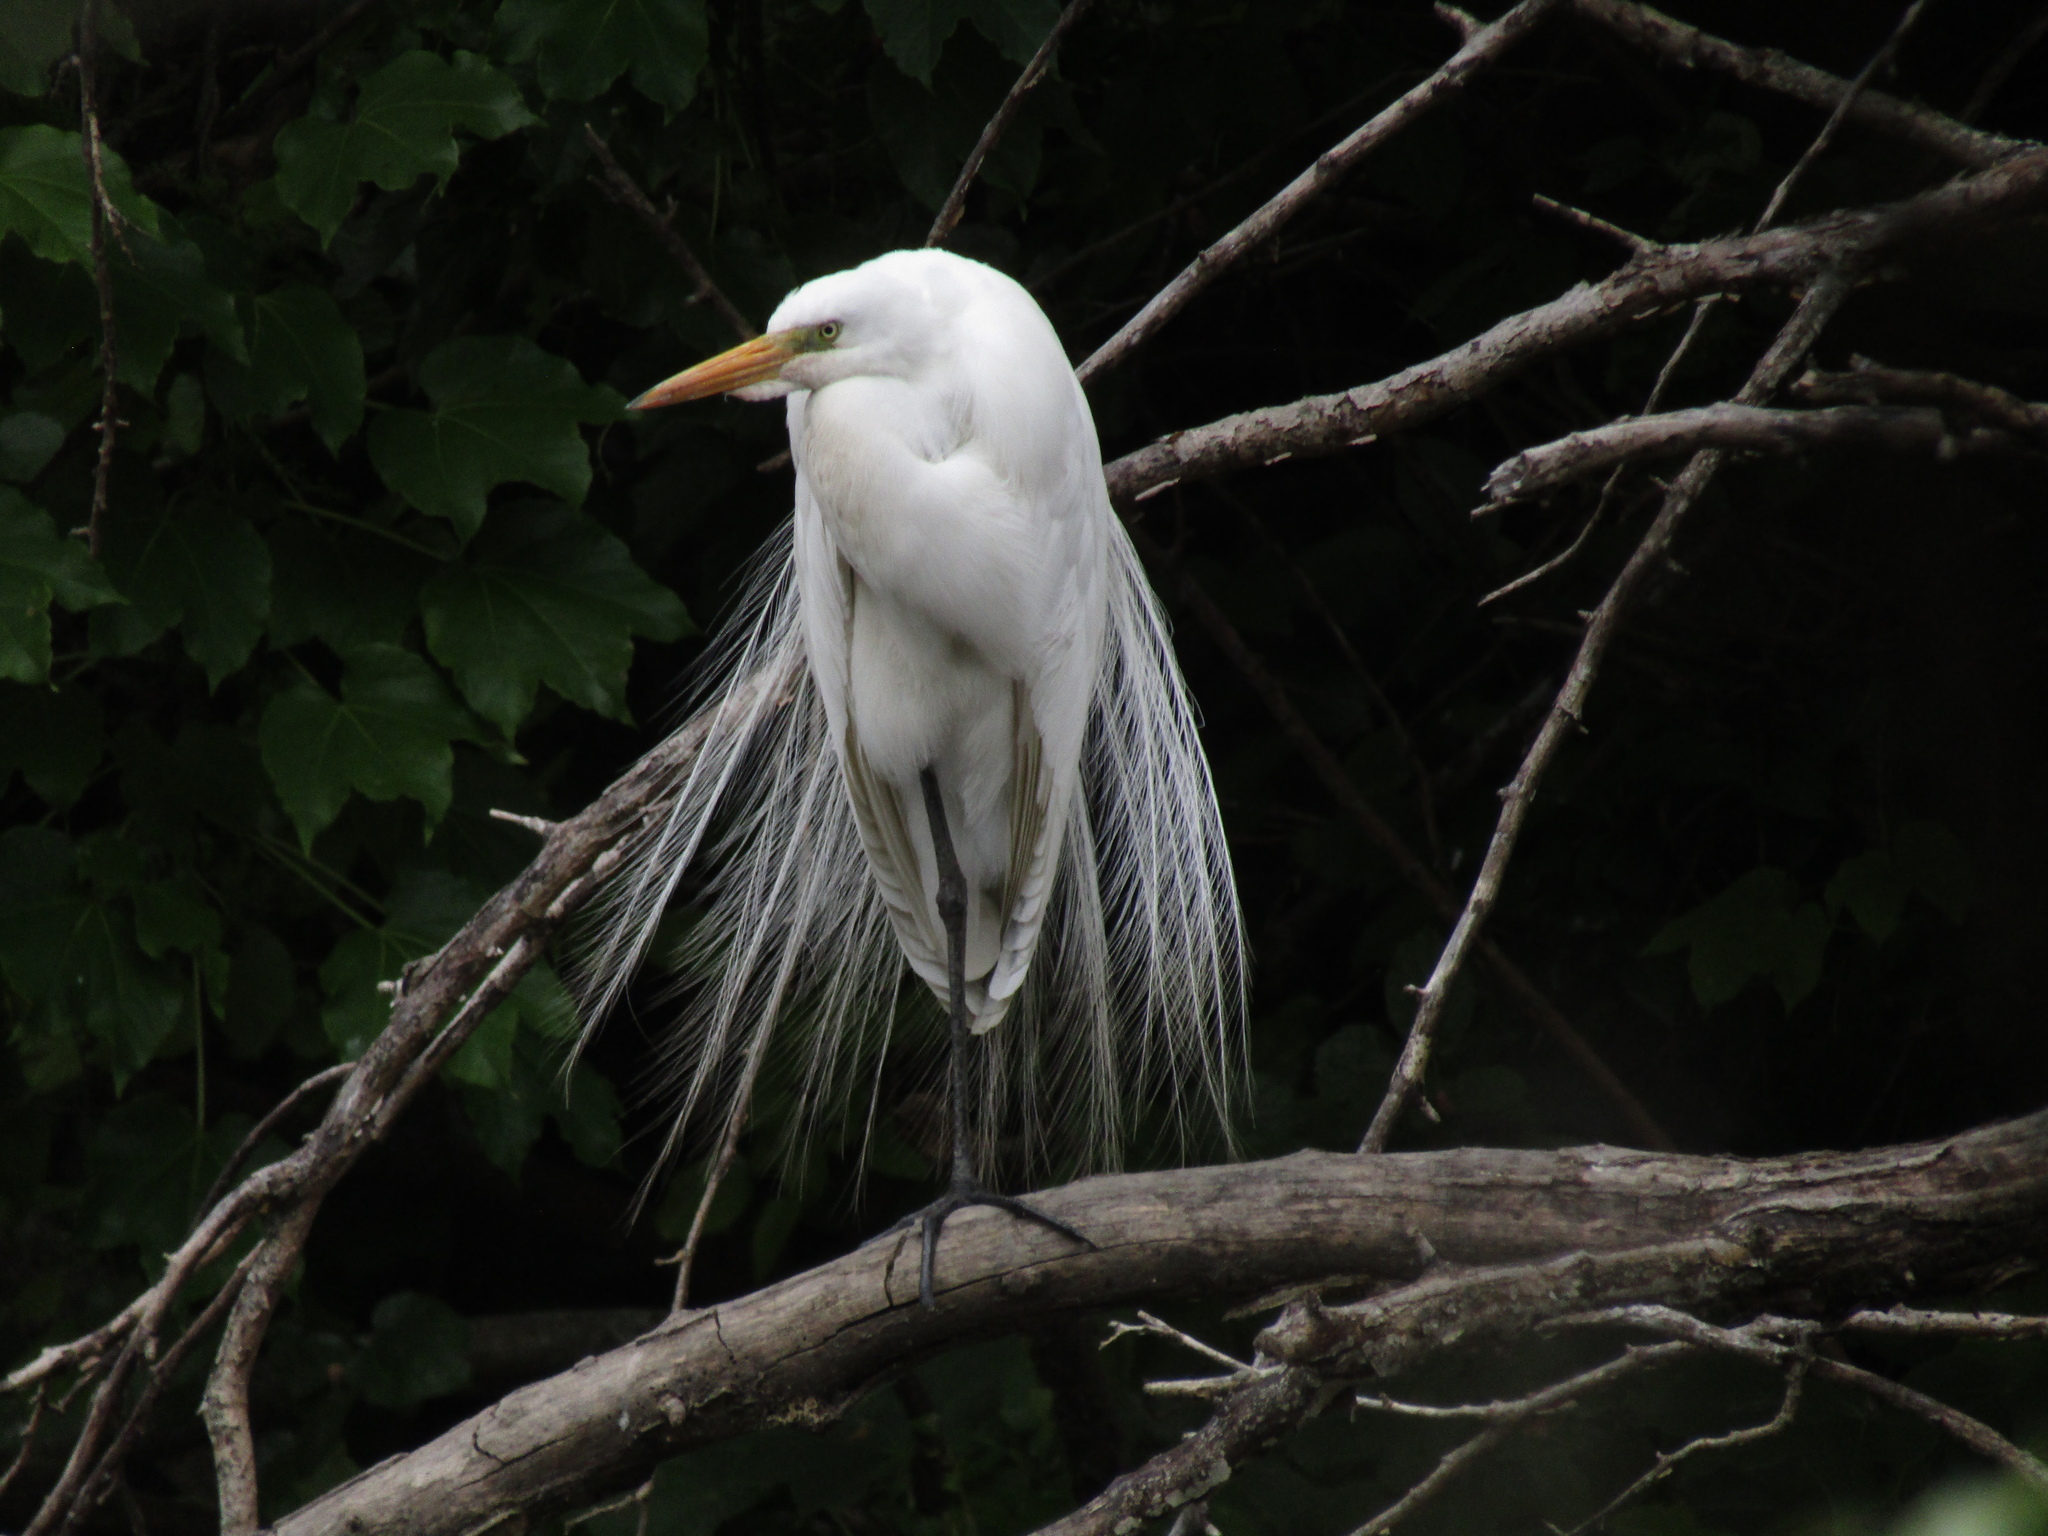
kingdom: Animalia
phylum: Chordata
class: Aves
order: Pelecaniformes
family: Ardeidae
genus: Ardea
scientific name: Ardea alba
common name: Great egret
